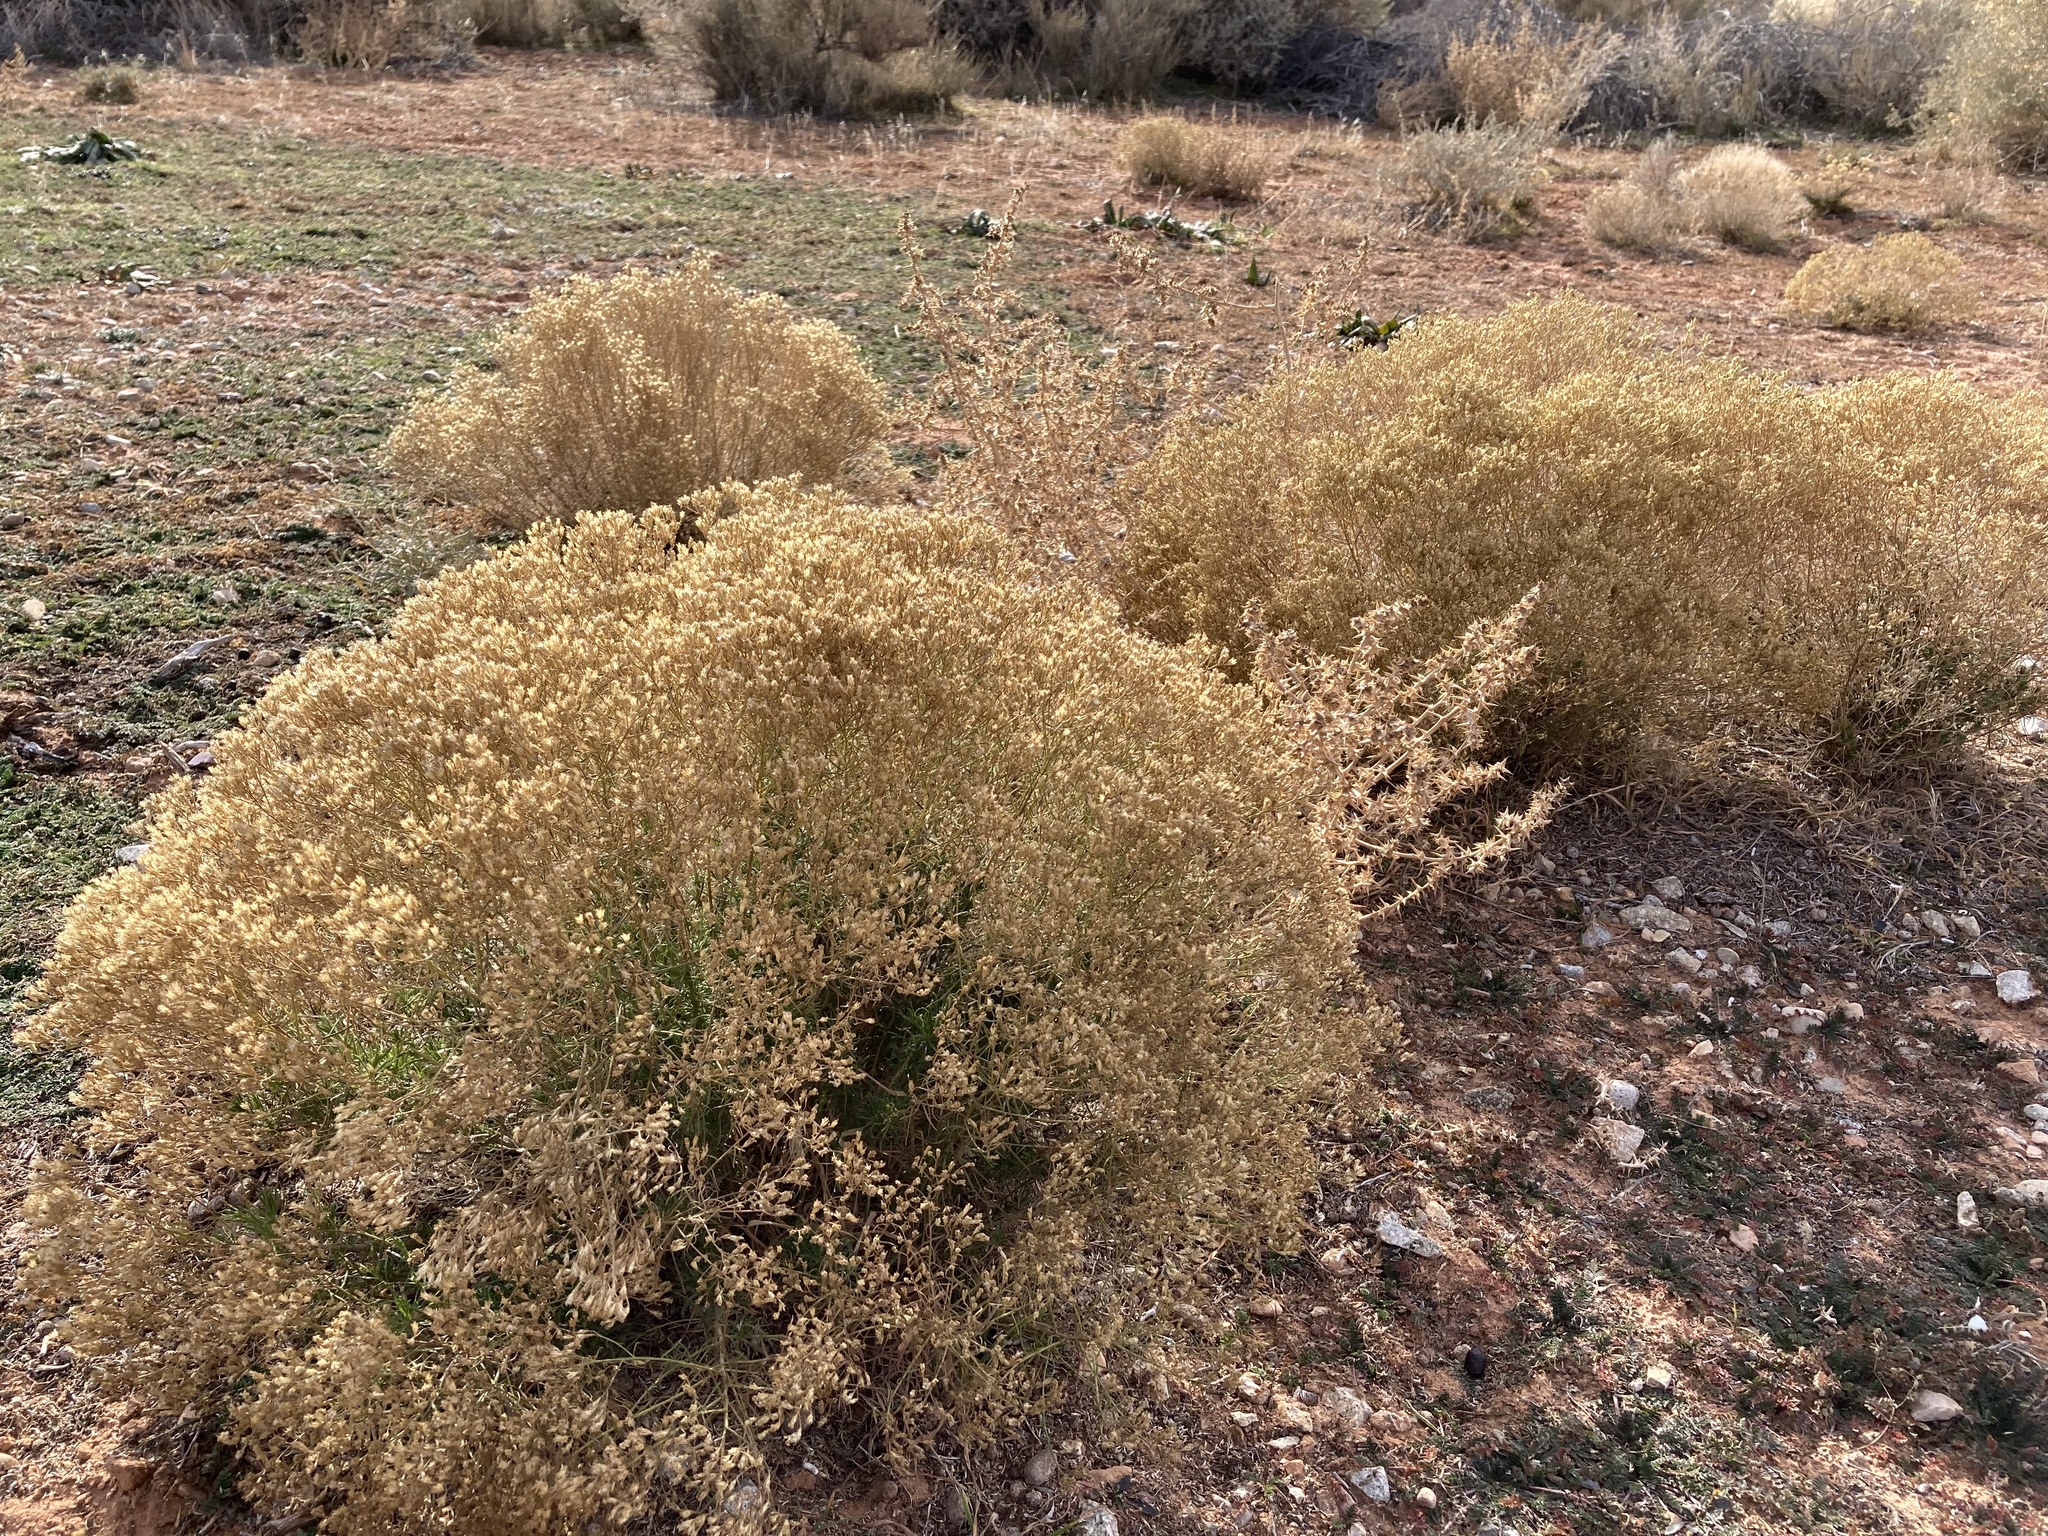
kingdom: Plantae
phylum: Tracheophyta
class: Magnoliopsida
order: Asterales
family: Asteraceae
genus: Gutierrezia
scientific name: Gutierrezia sarothrae
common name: Broom snakeweed
